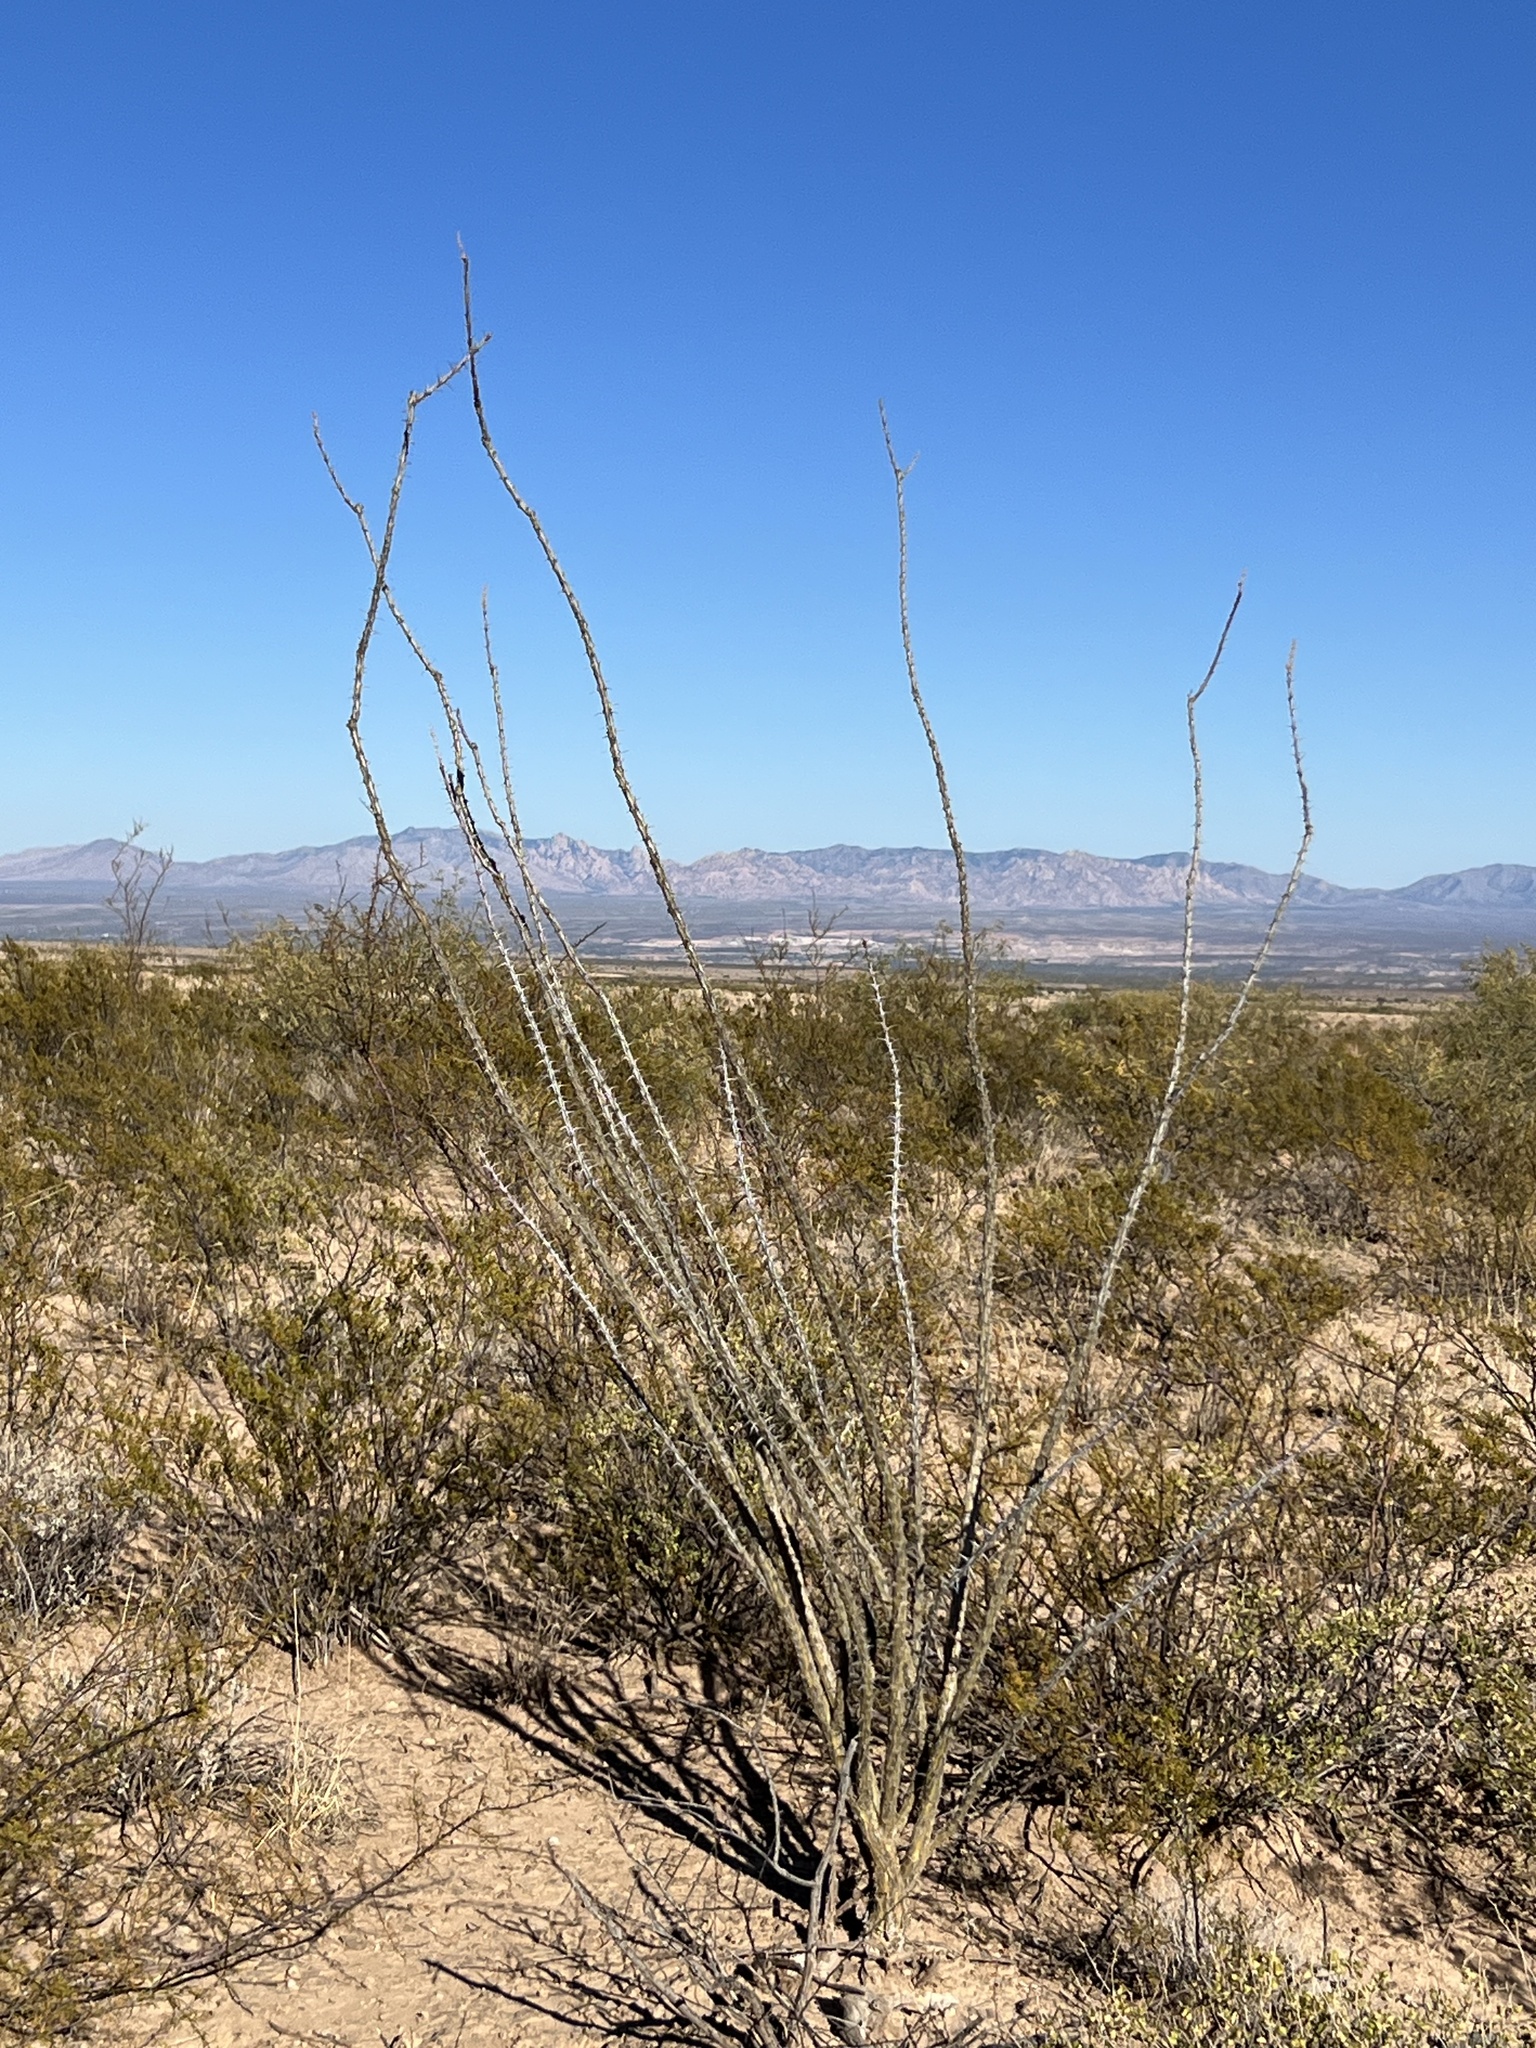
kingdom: Plantae
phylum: Tracheophyta
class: Magnoliopsida
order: Ericales
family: Fouquieriaceae
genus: Fouquieria
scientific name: Fouquieria splendens
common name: Vine-cactus
